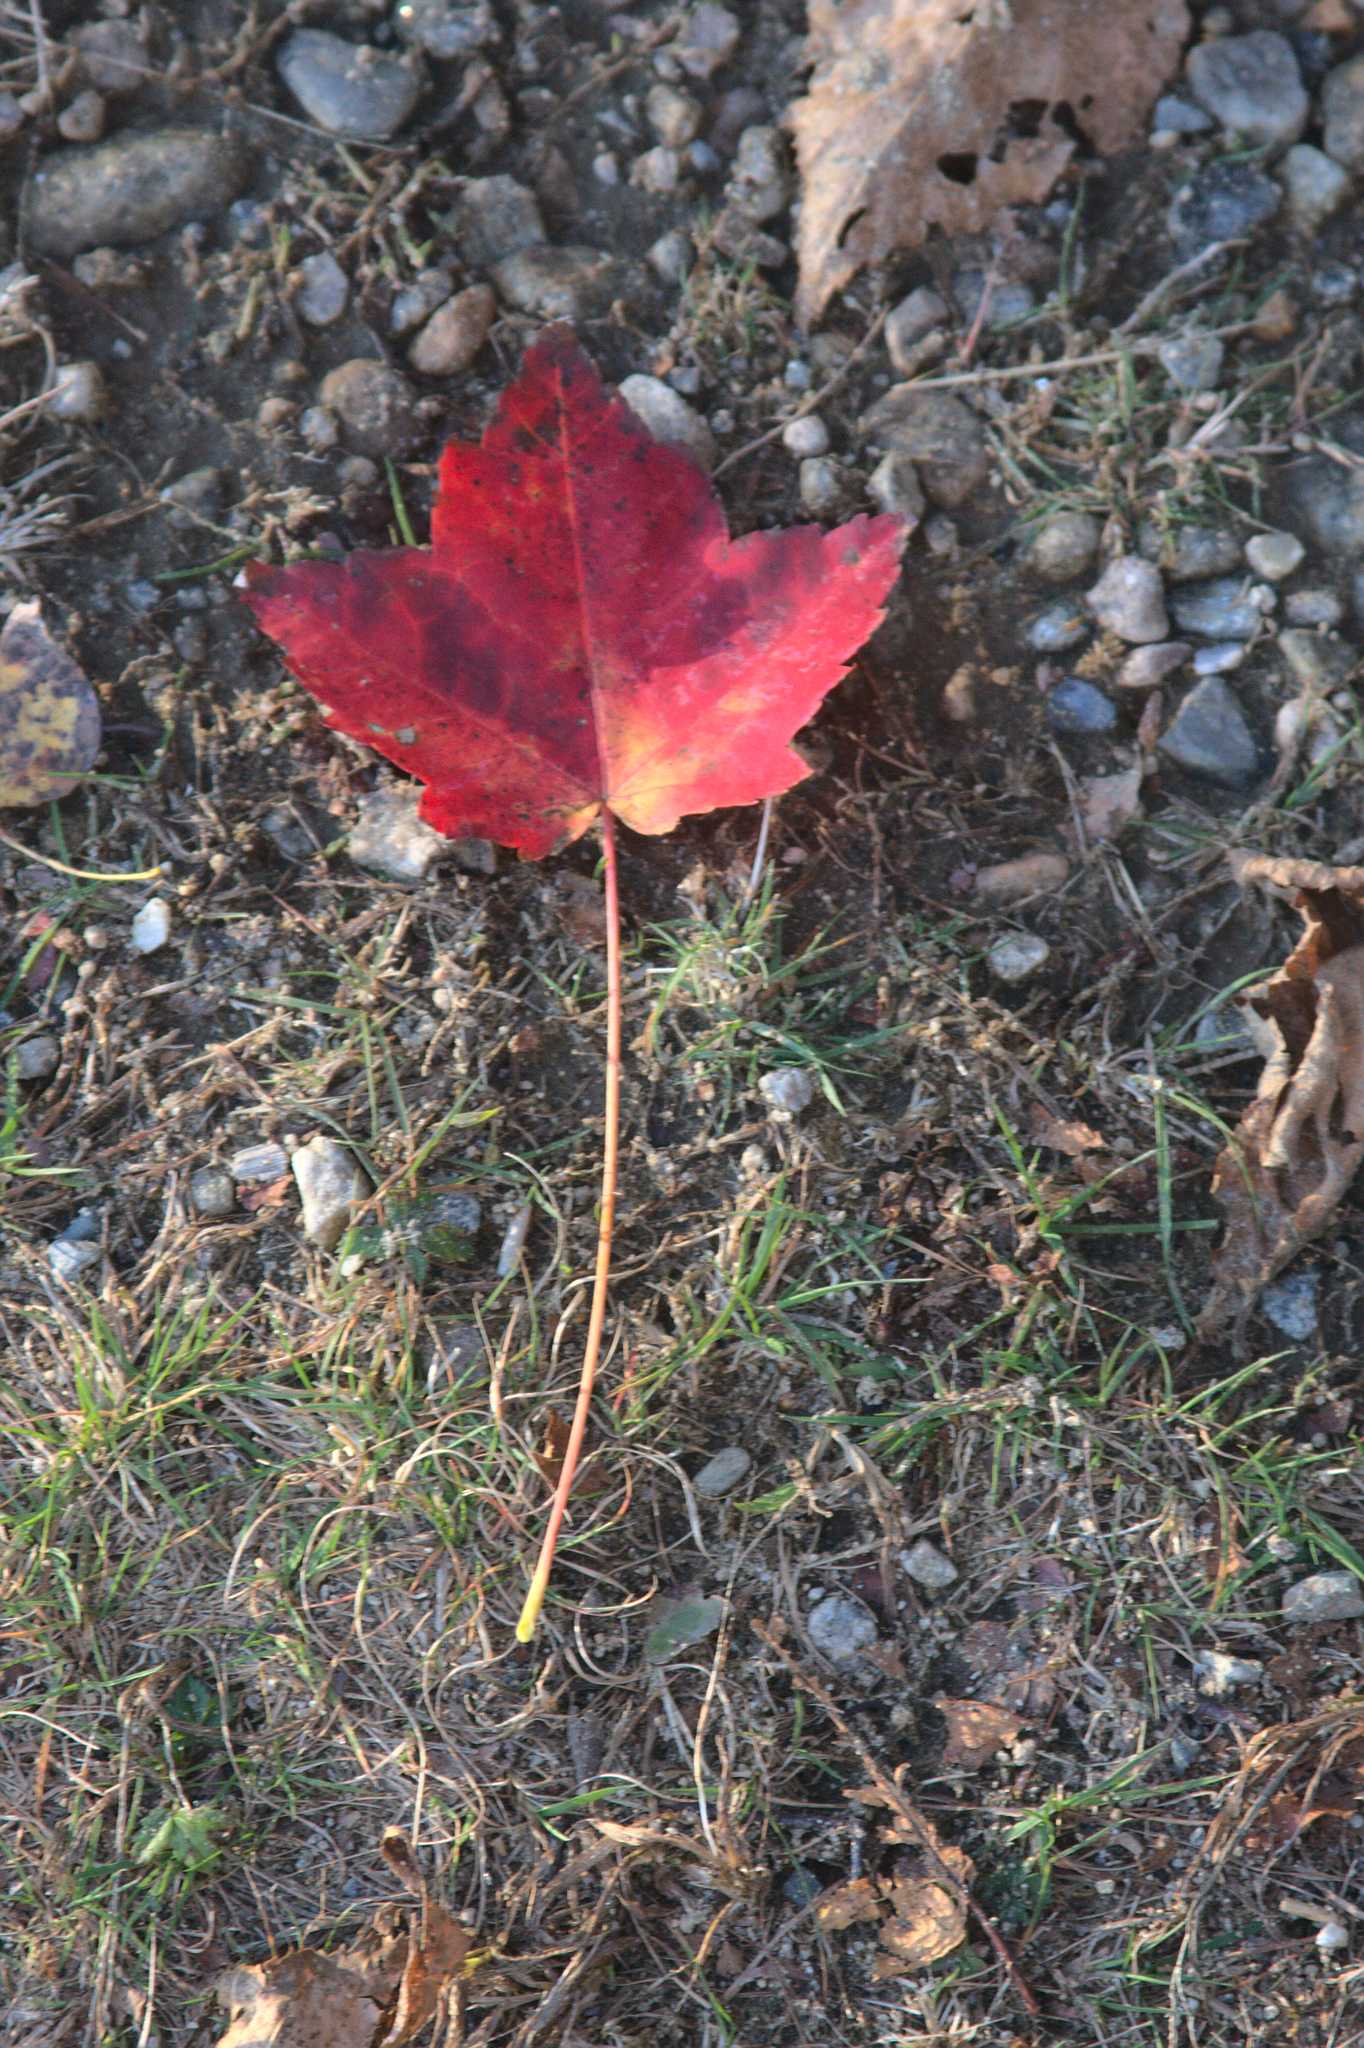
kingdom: Plantae
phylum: Tracheophyta
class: Magnoliopsida
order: Sapindales
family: Sapindaceae
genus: Acer
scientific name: Acer rubrum
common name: Red maple
